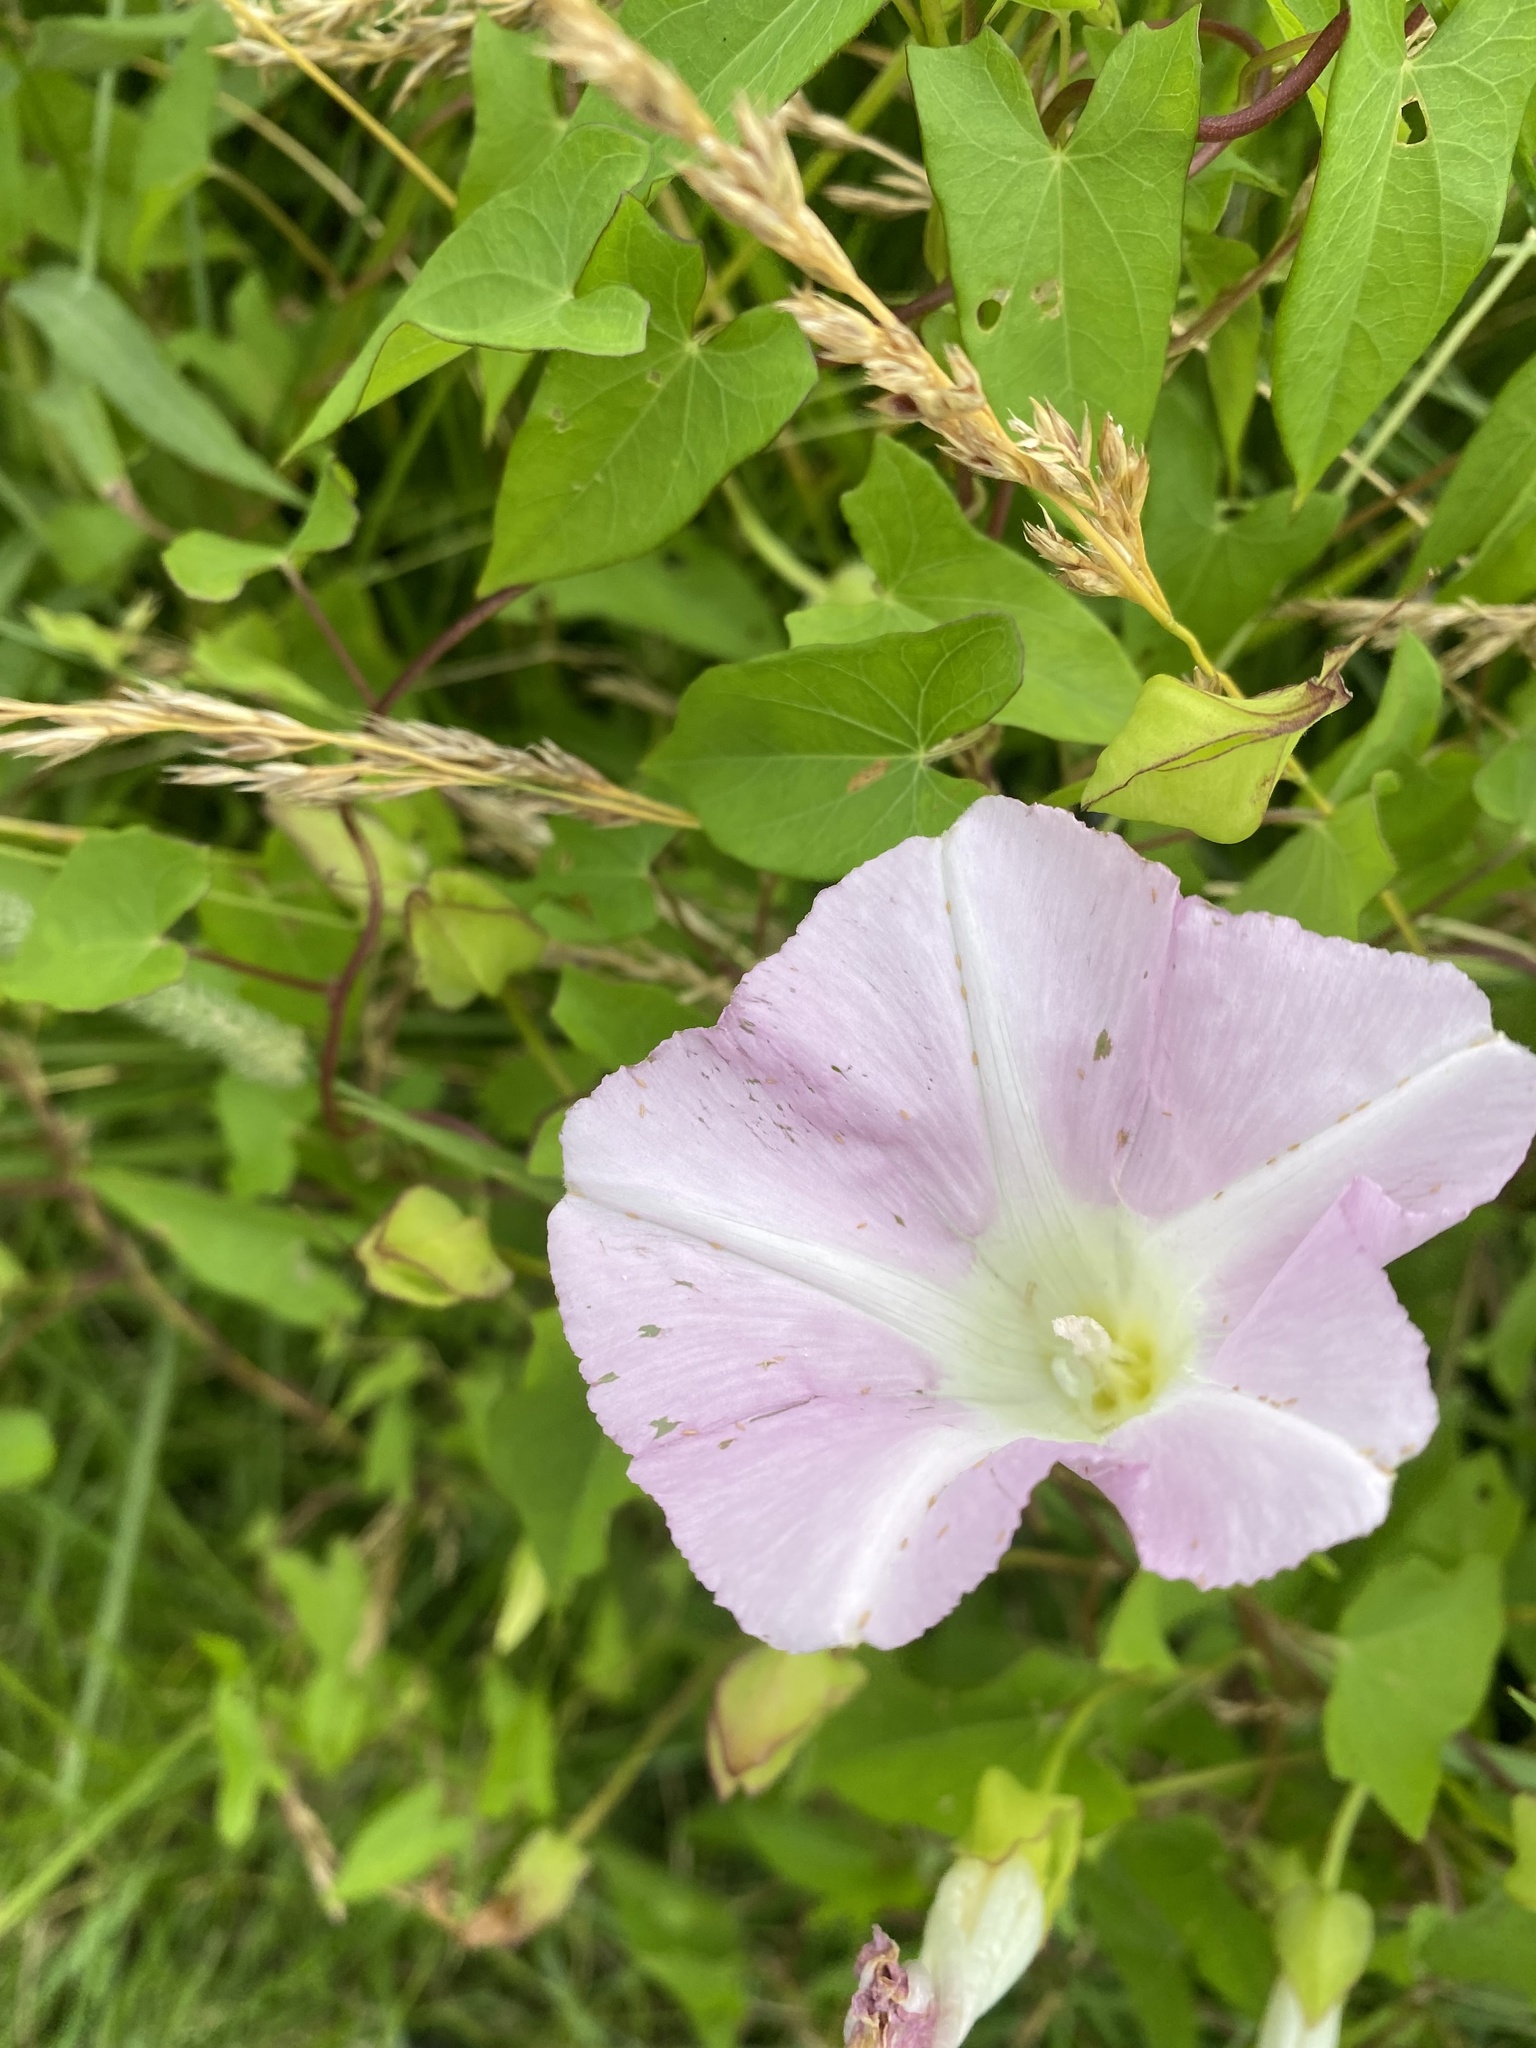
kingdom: Plantae
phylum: Tracheophyta
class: Magnoliopsida
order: Solanales
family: Convolvulaceae
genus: Calystegia
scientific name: Calystegia sepium
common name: Hedge bindweed
